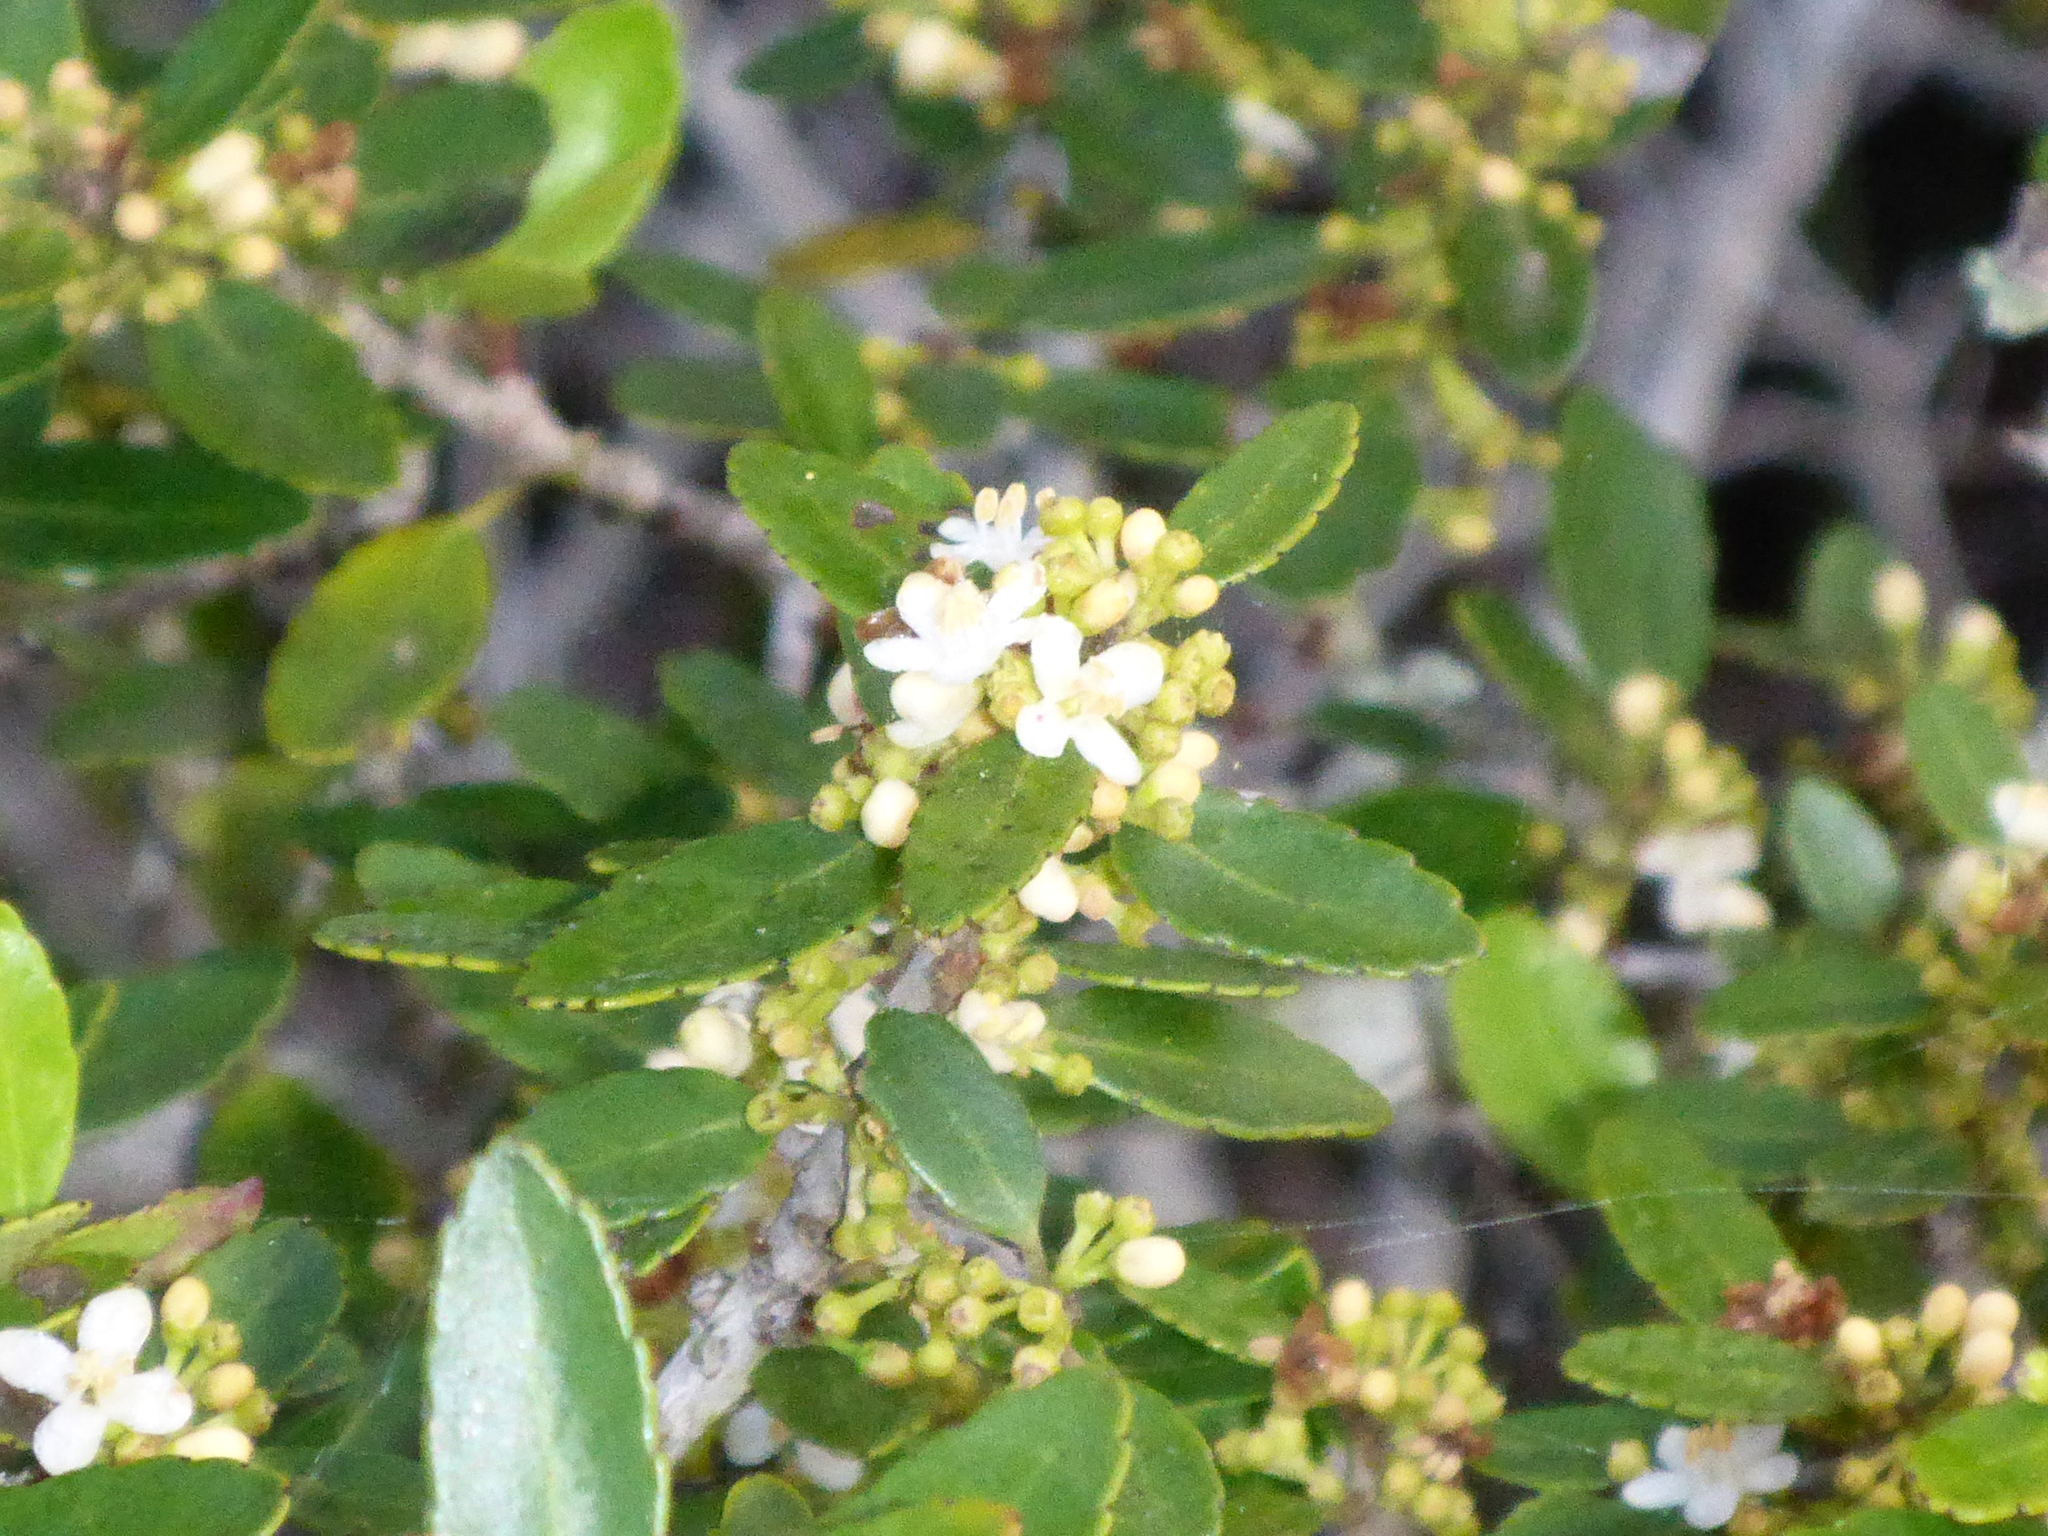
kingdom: Plantae
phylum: Tracheophyta
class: Magnoliopsida
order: Aquifoliales
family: Aquifoliaceae
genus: Ilex
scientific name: Ilex vomitoria
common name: Yaupon holly
